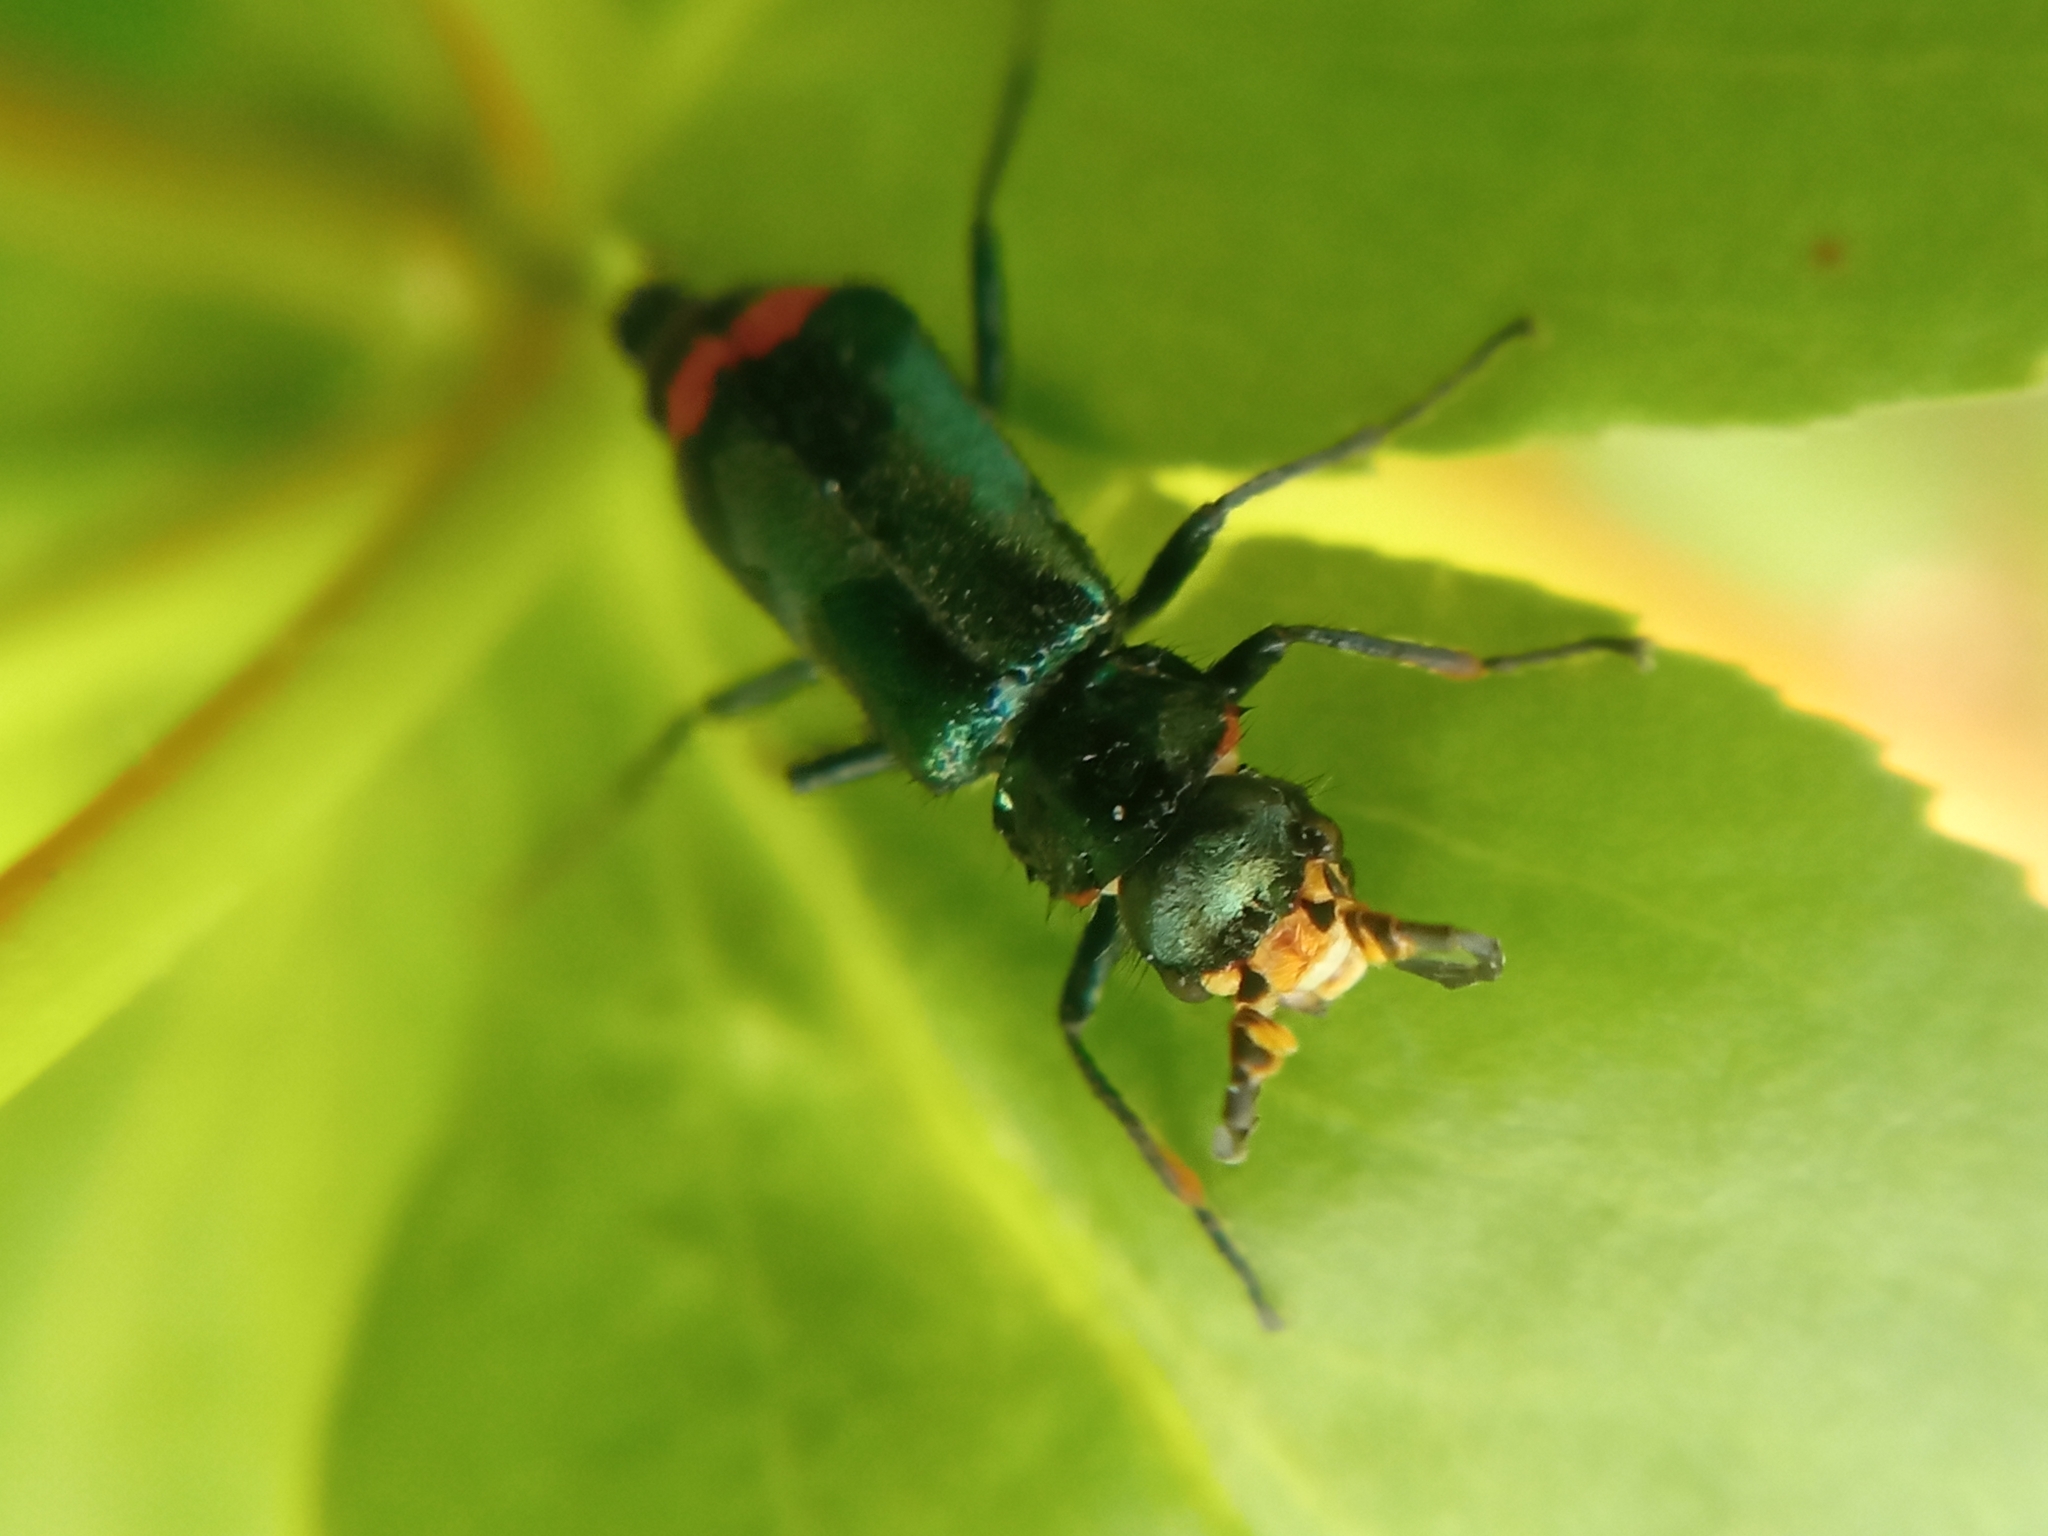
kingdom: Animalia
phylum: Arthropoda
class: Insecta
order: Coleoptera
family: Melyridae
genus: Malachius
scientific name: Malachius bipustulatus
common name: Malachite beetle
